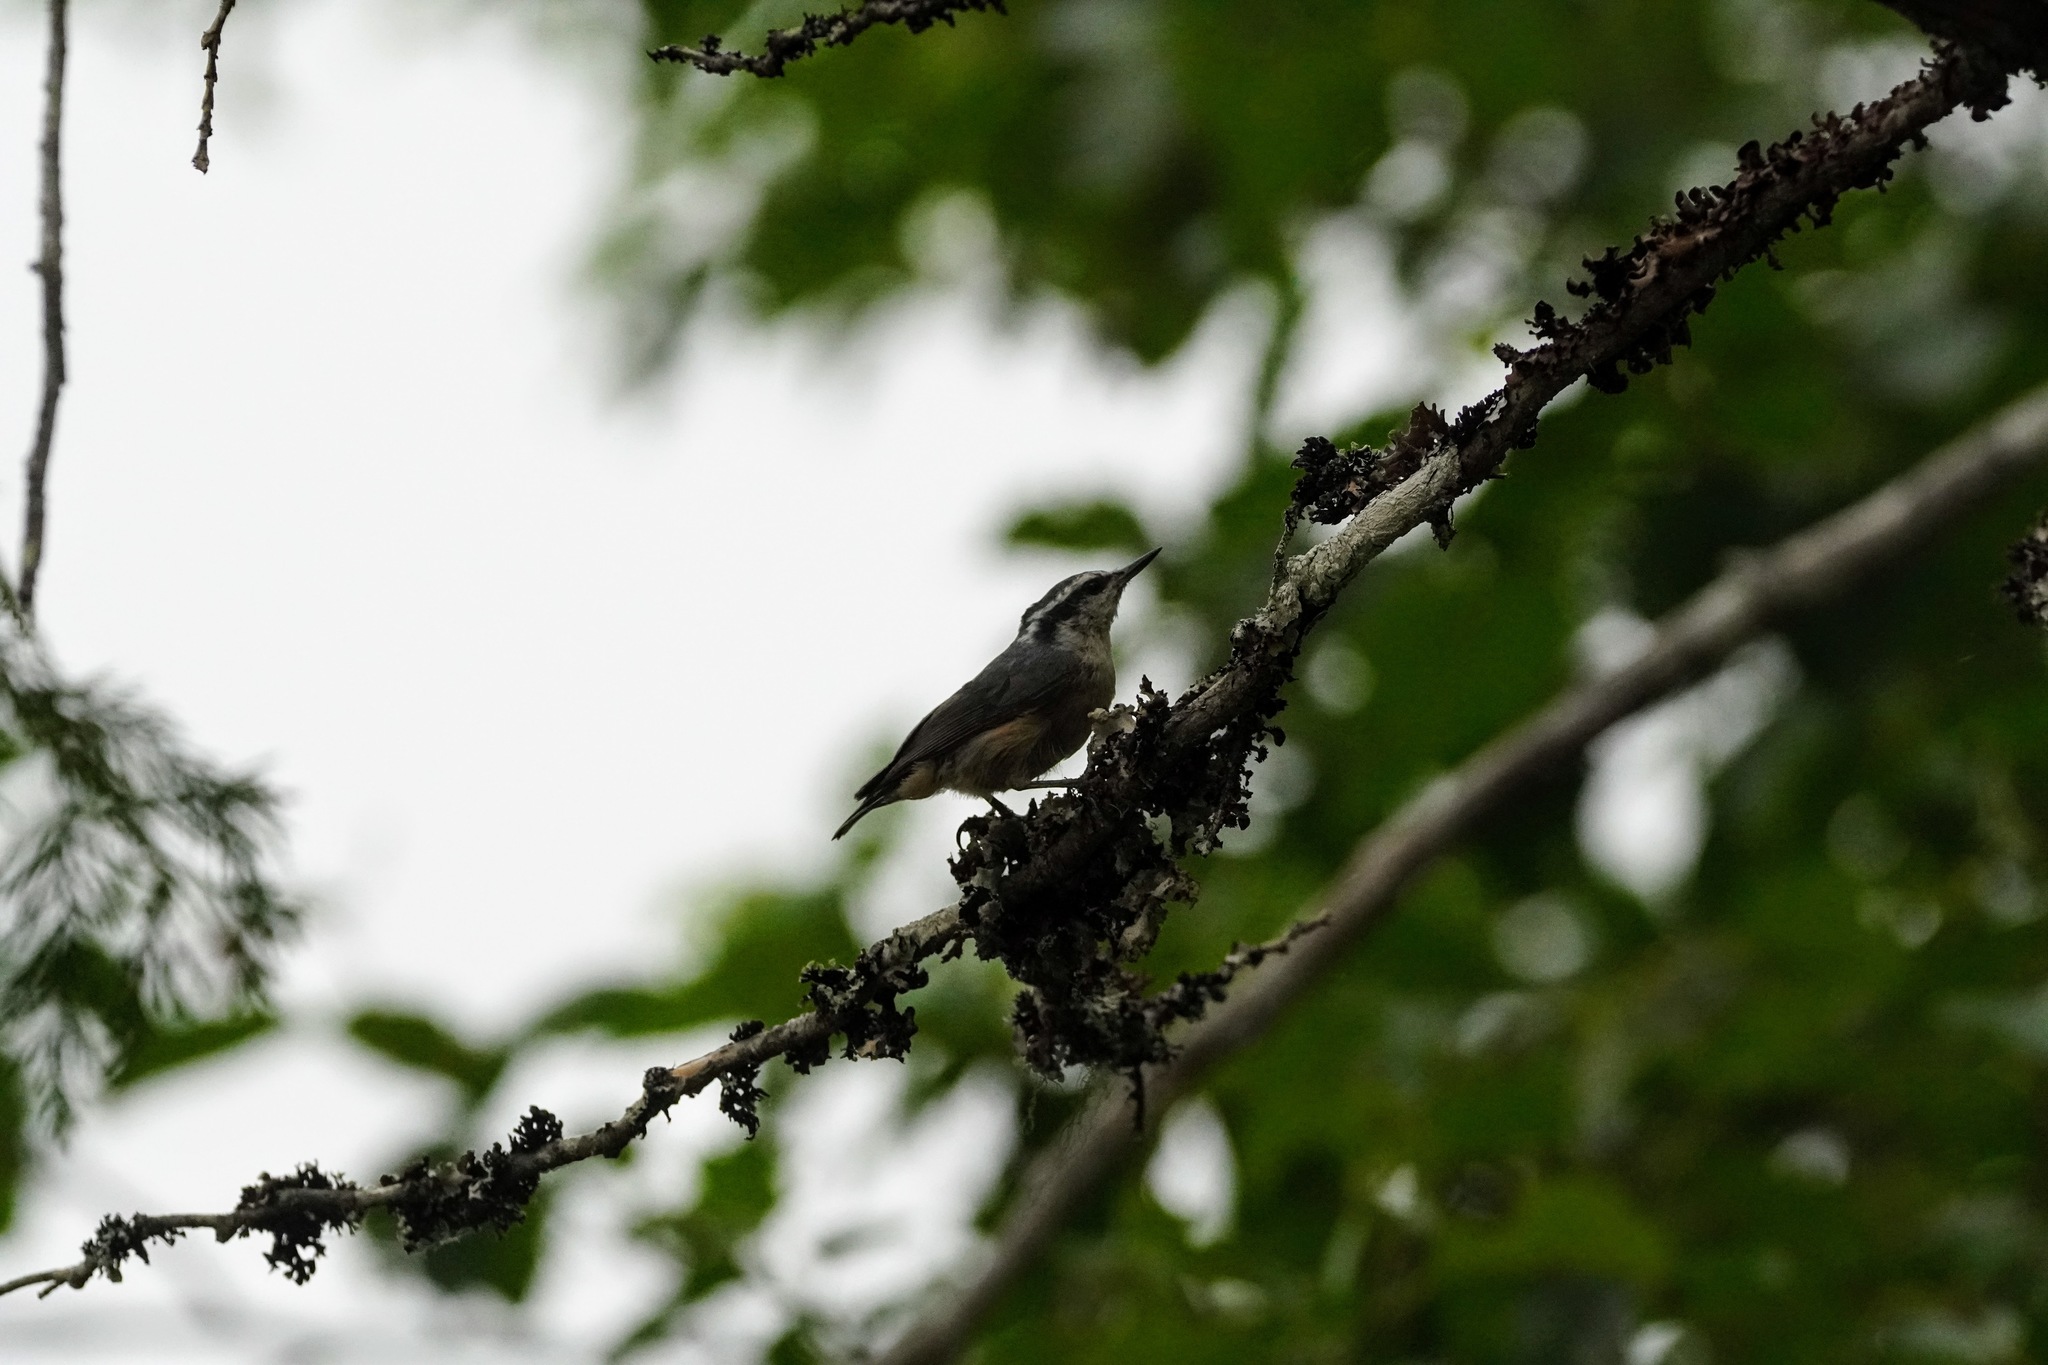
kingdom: Animalia
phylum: Chordata
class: Aves
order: Passeriformes
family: Sittidae
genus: Sitta
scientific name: Sitta canadensis
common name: Red-breasted nuthatch
